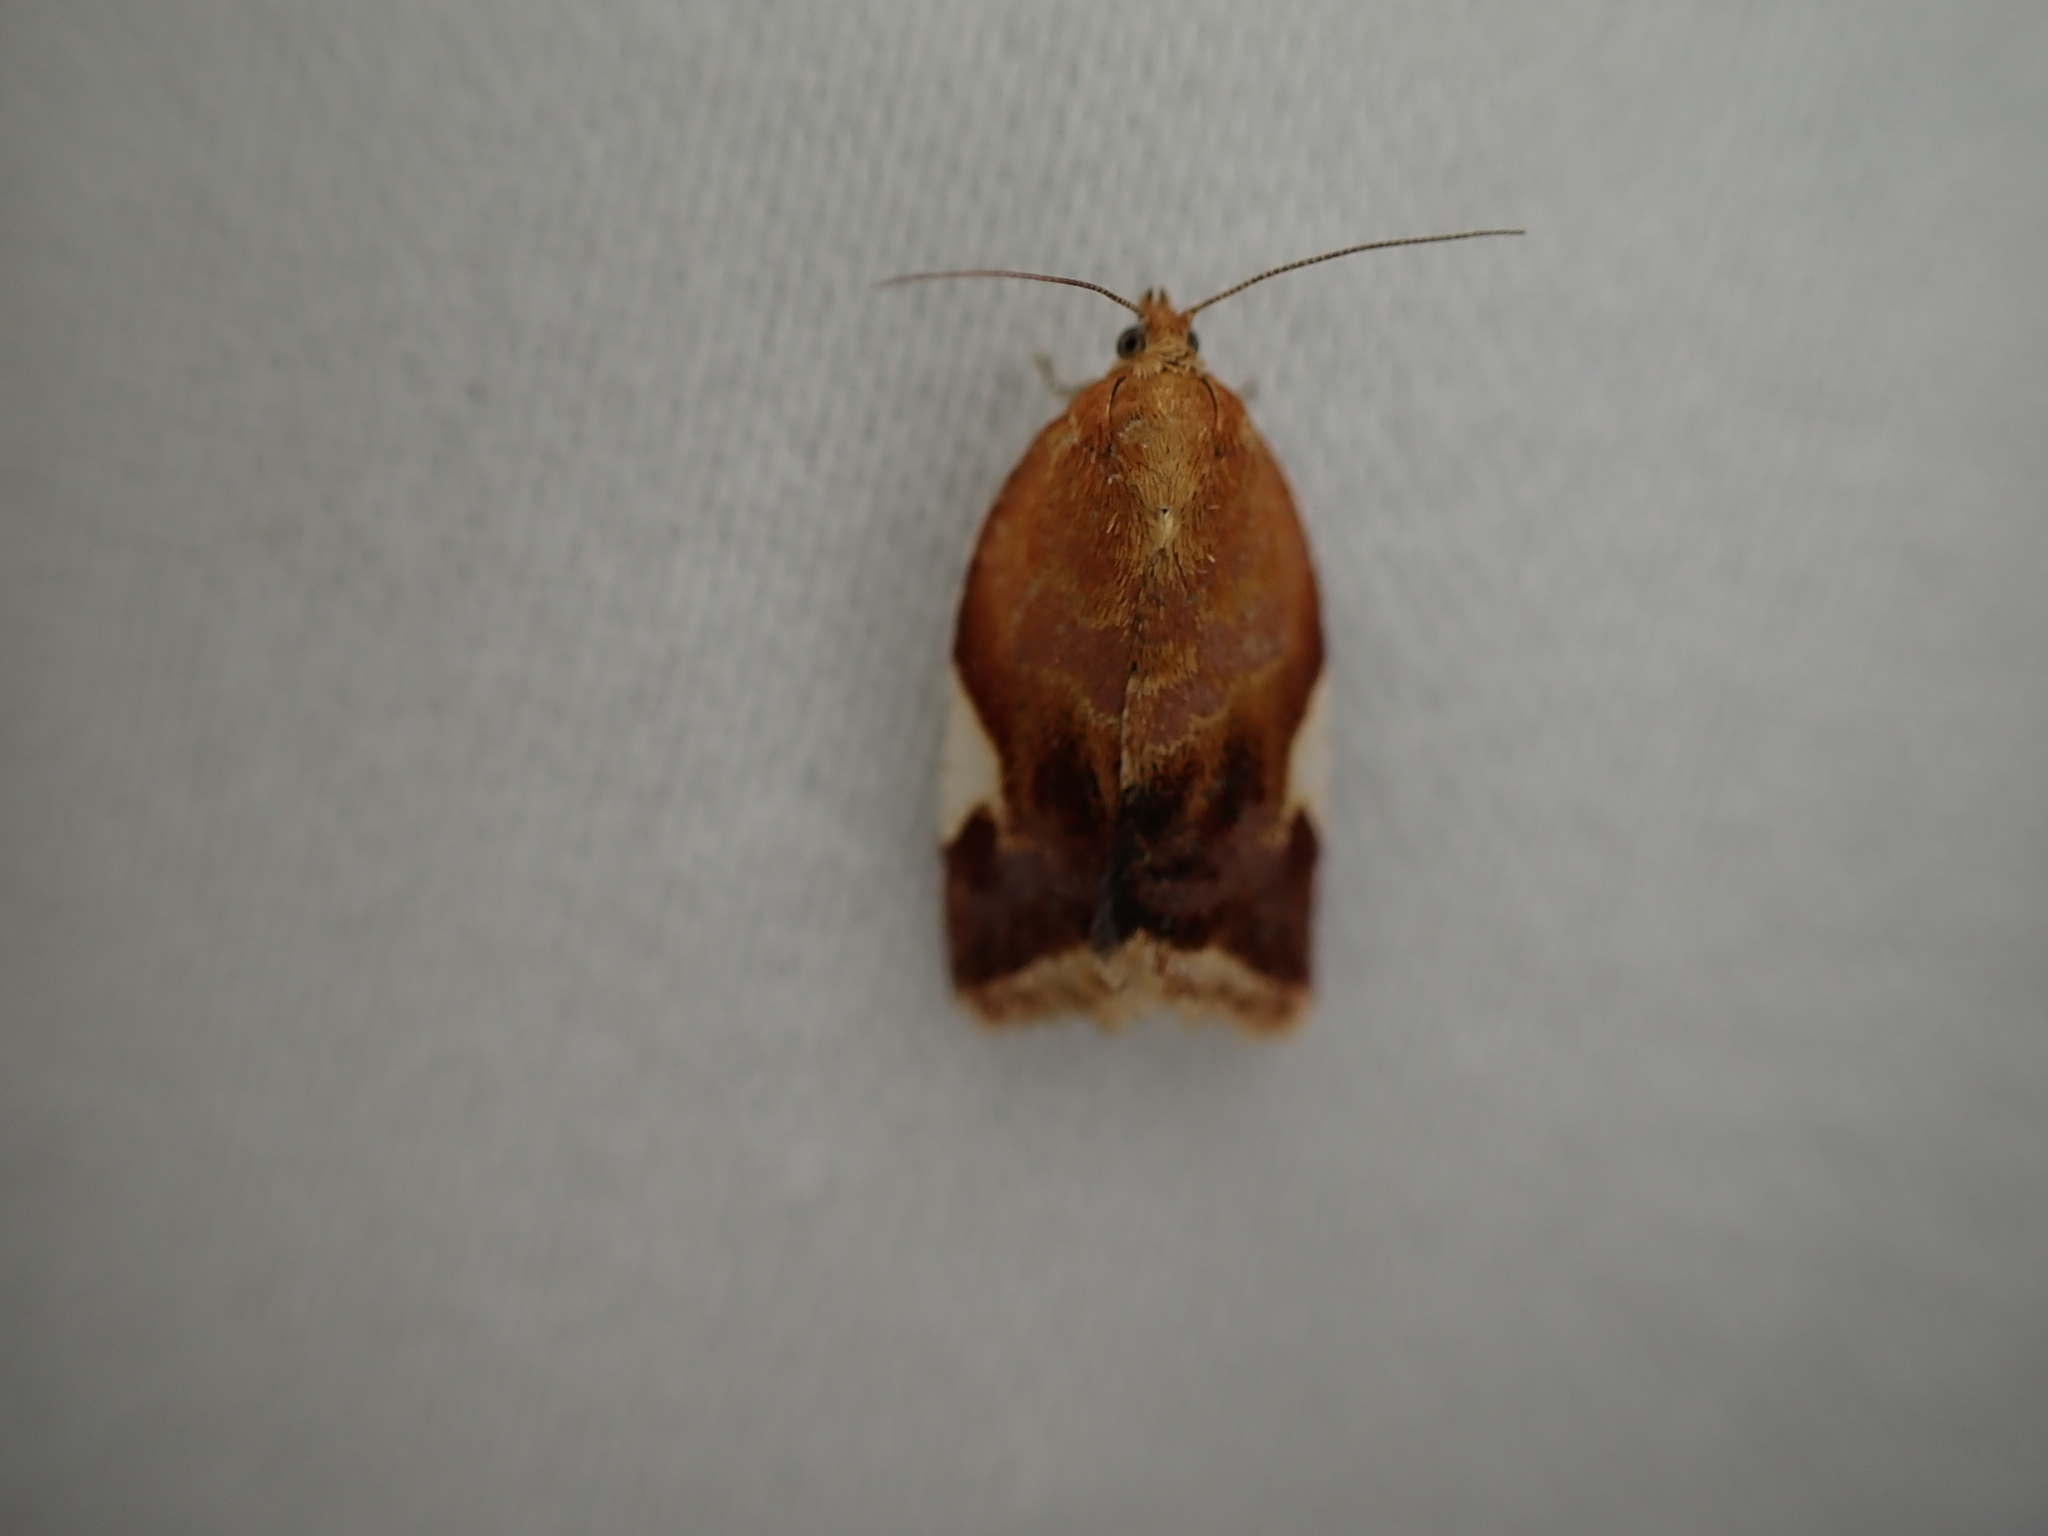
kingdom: Animalia
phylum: Arthropoda
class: Insecta
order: Lepidoptera
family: Tortricidae
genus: Clepsis
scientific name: Clepsis persicana
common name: White triangle tortrix
